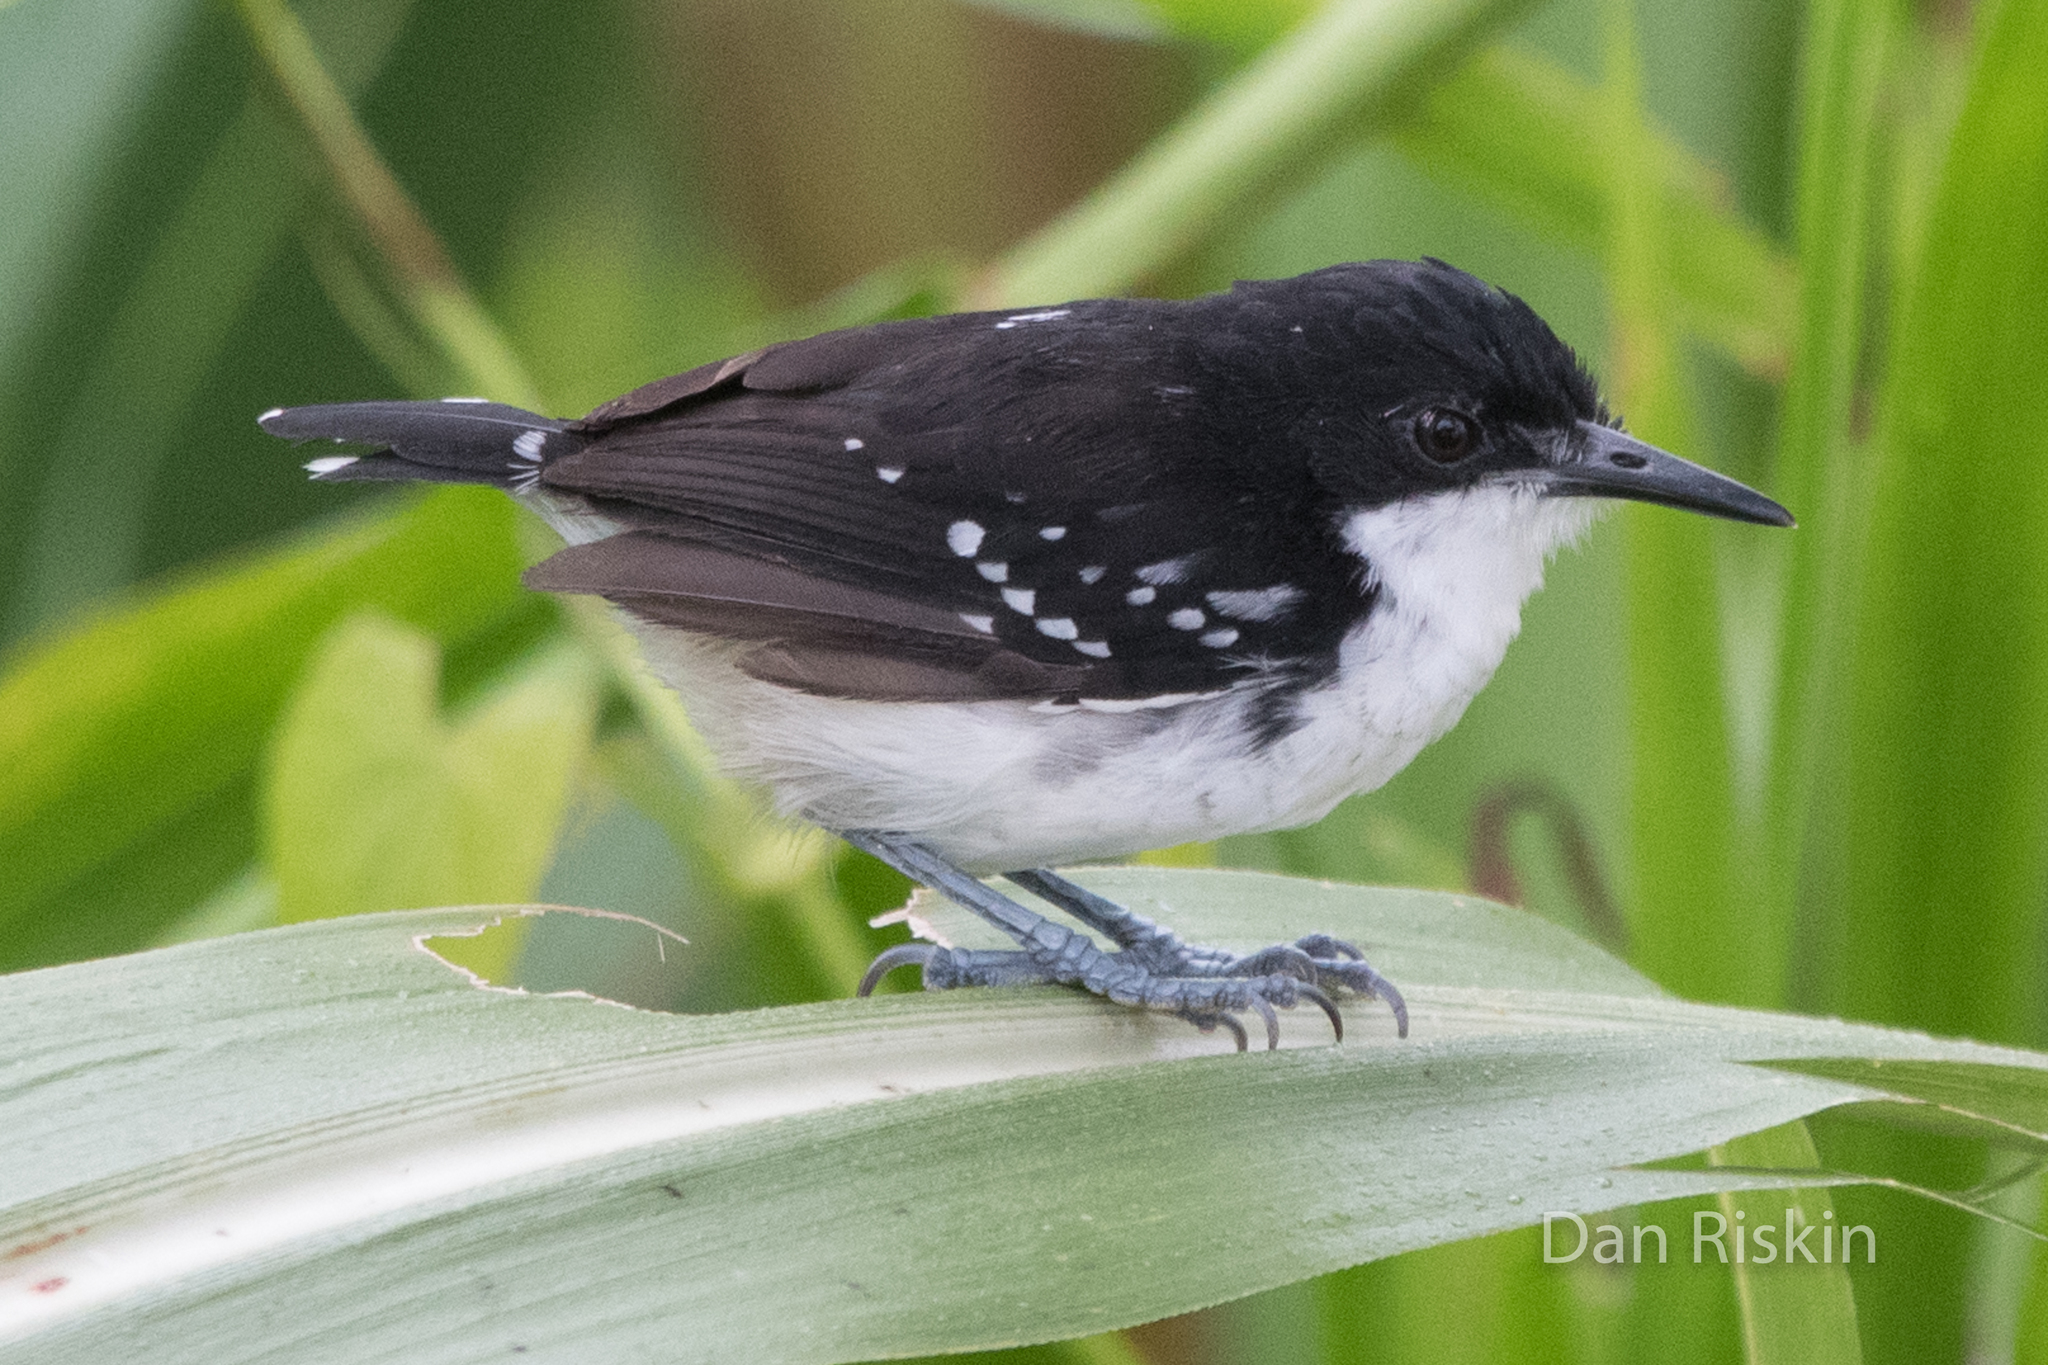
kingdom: Animalia
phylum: Chordata
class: Aves
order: Passeriformes
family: Thamnophilidae
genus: Myrmochanes
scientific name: Myrmochanes hemileucus
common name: Black-and-white antbird
